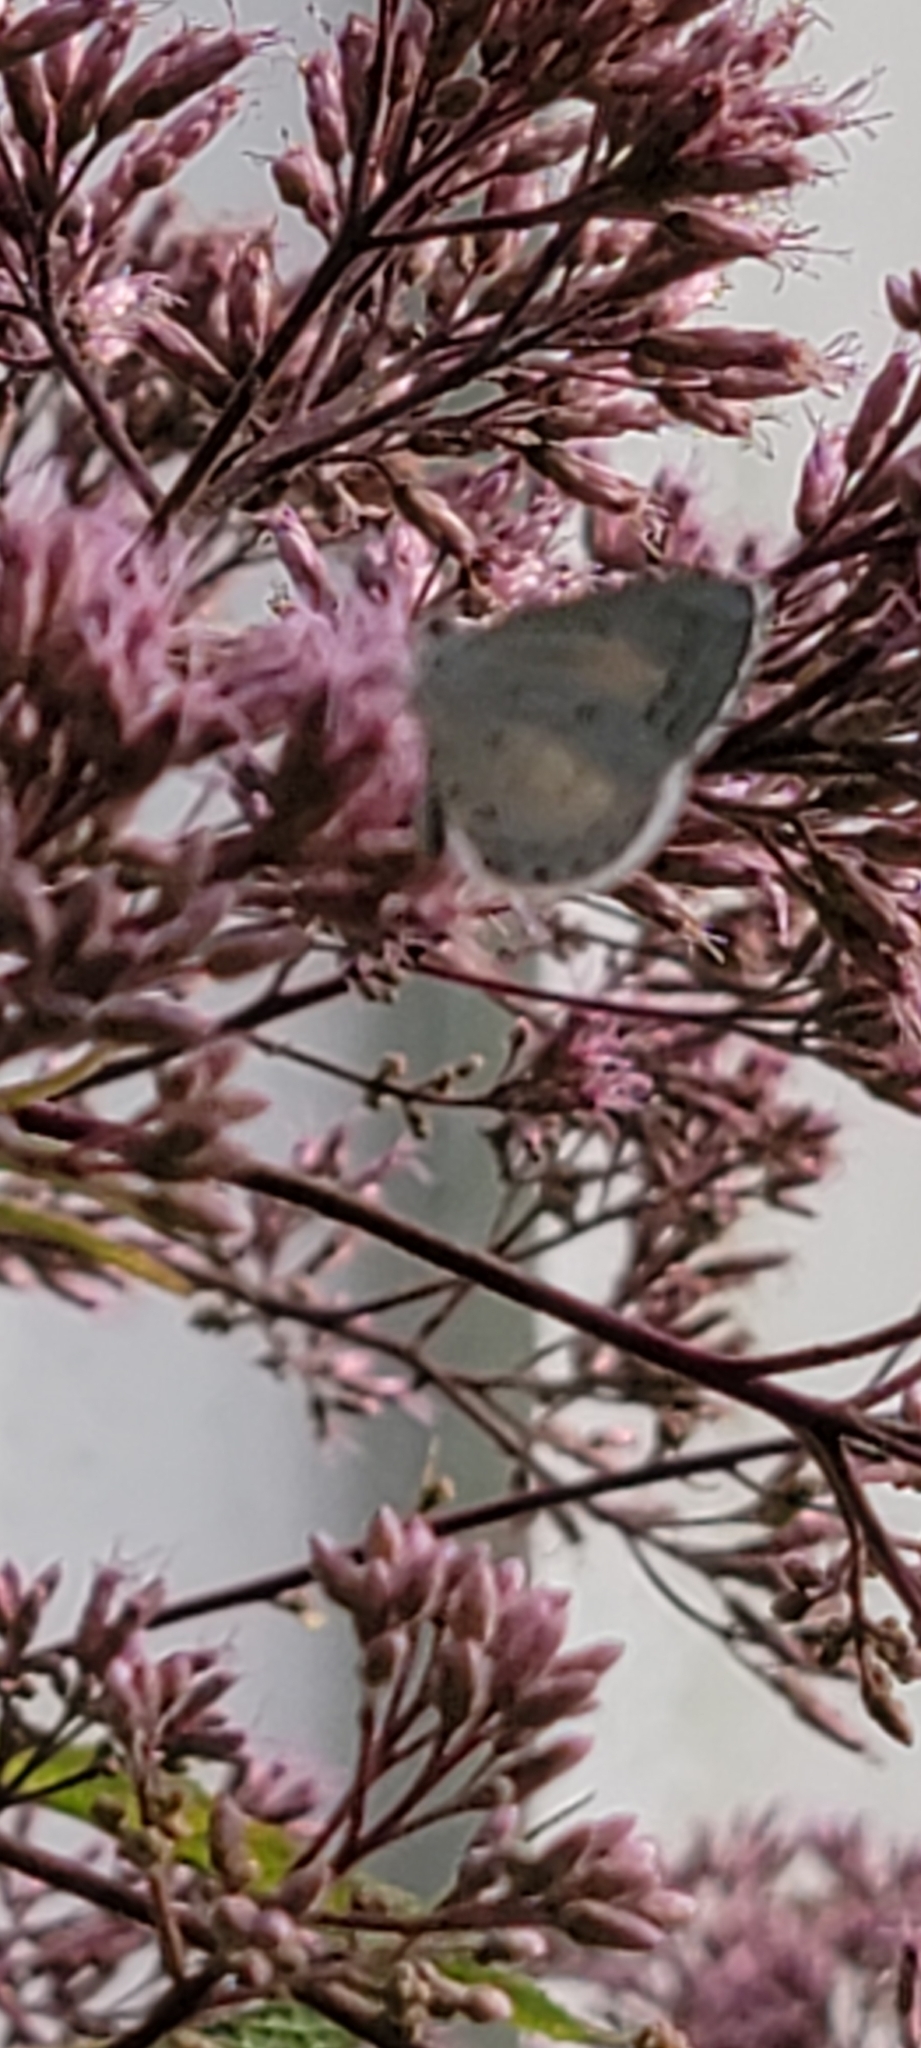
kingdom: Animalia
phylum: Arthropoda
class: Insecta
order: Lepidoptera
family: Lycaenidae
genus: Cyaniris
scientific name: Cyaniris neglecta
